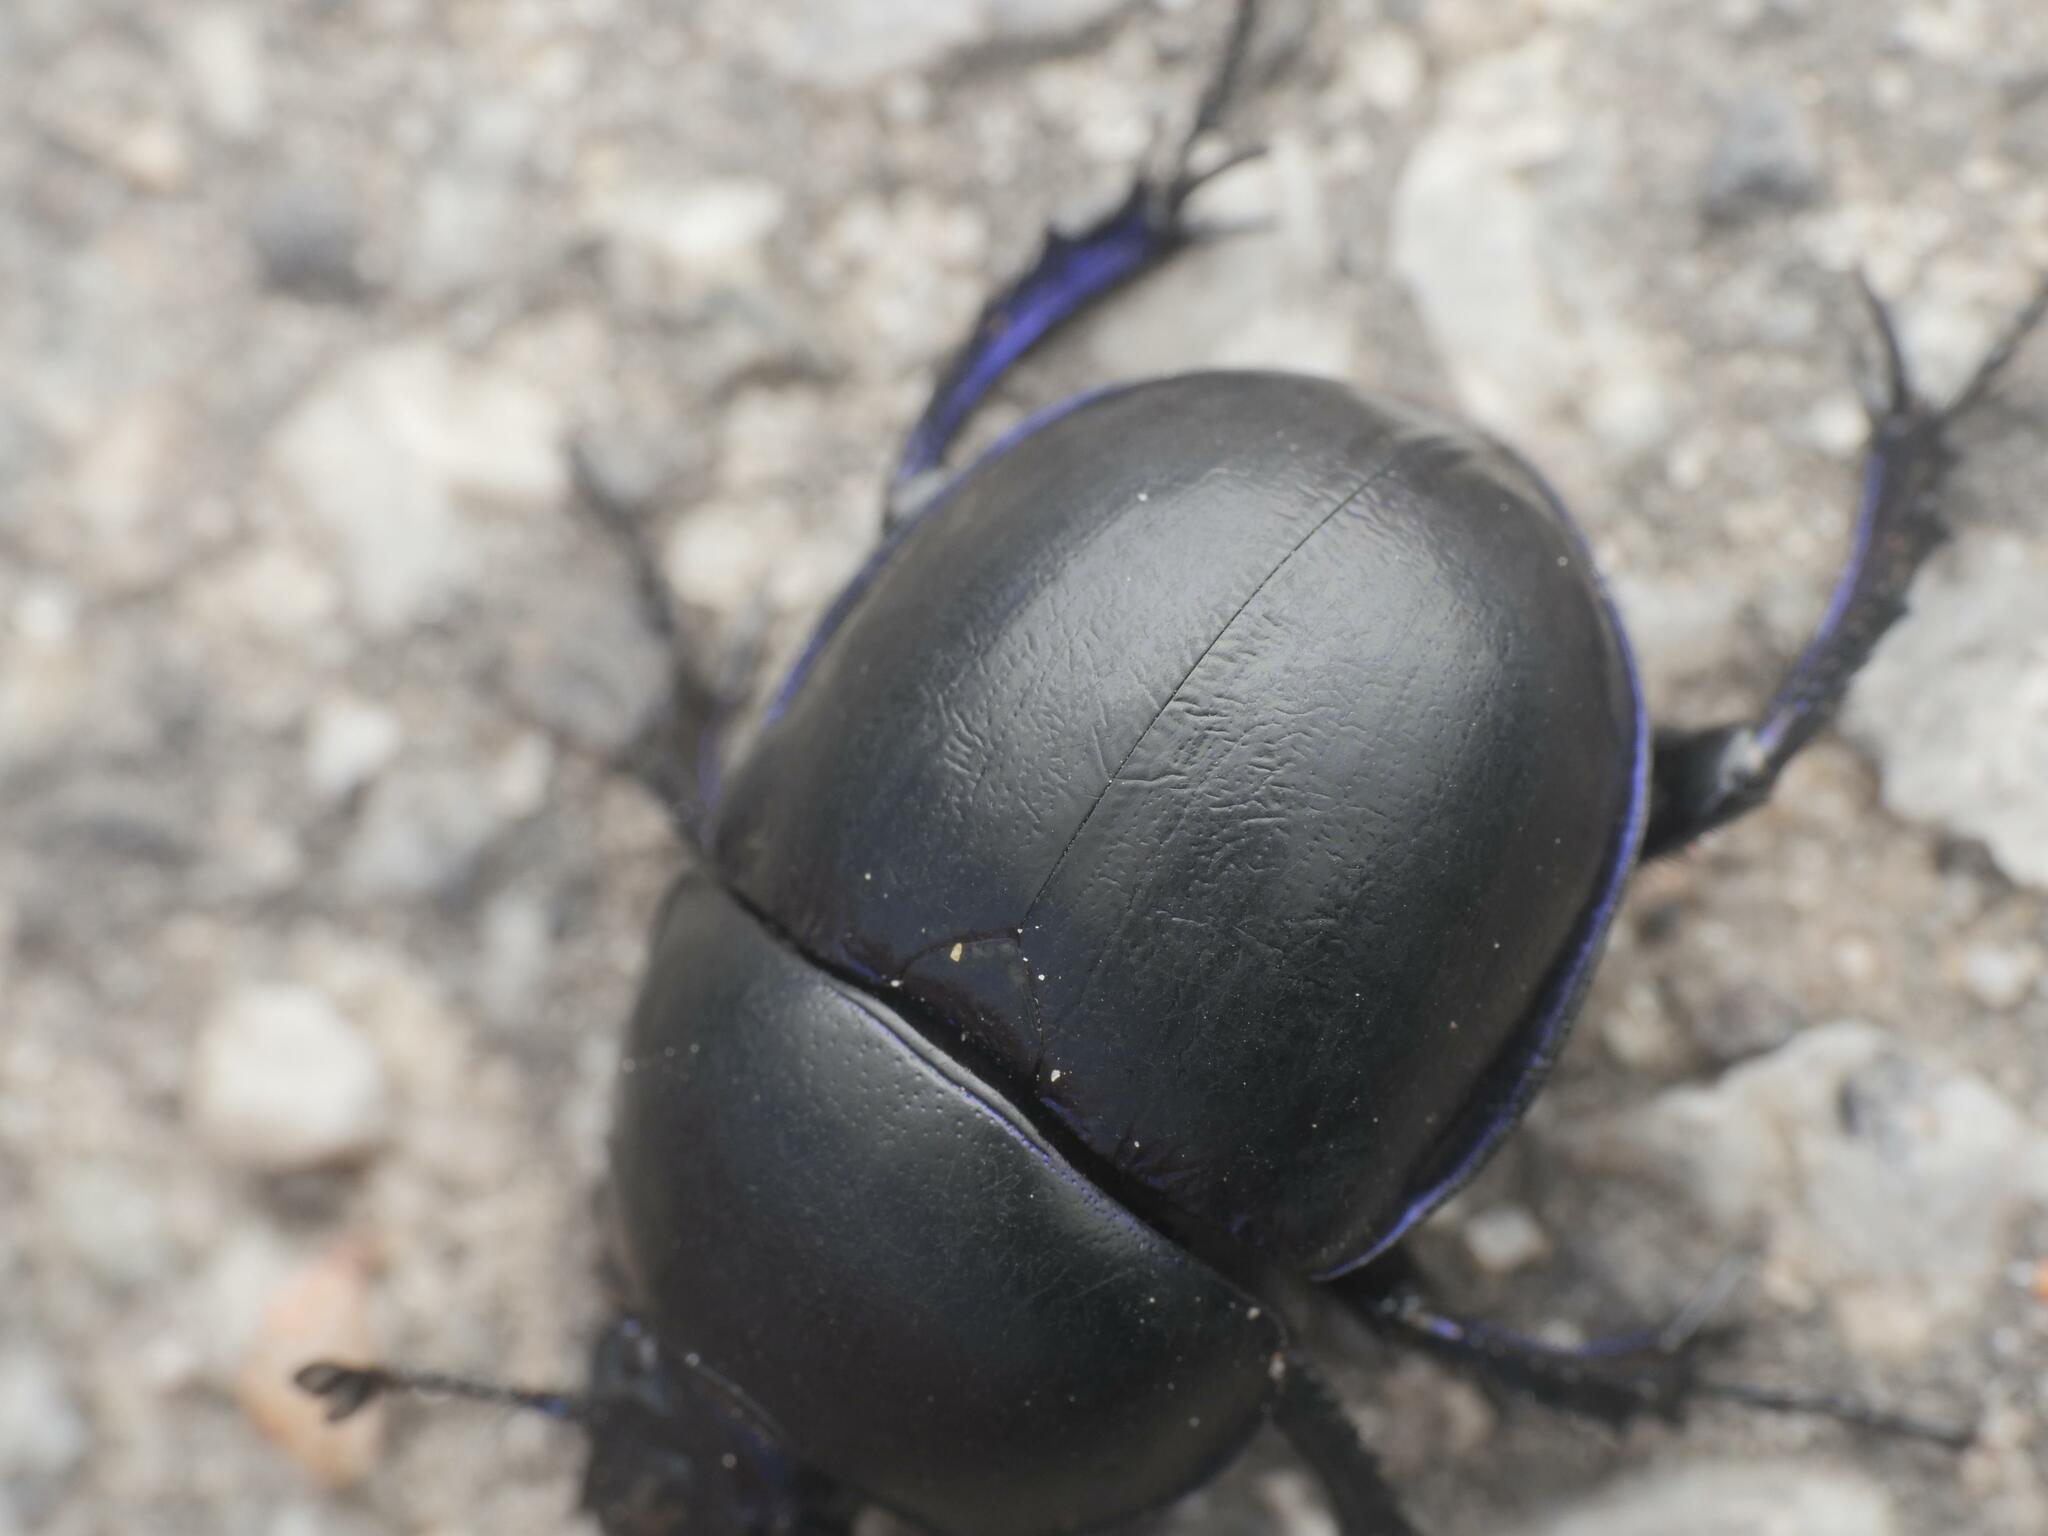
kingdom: Animalia
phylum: Arthropoda
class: Insecta
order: Coleoptera
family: Geotrupidae
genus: Trypocopris
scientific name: Trypocopris vernalis
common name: Spring dumbledor
